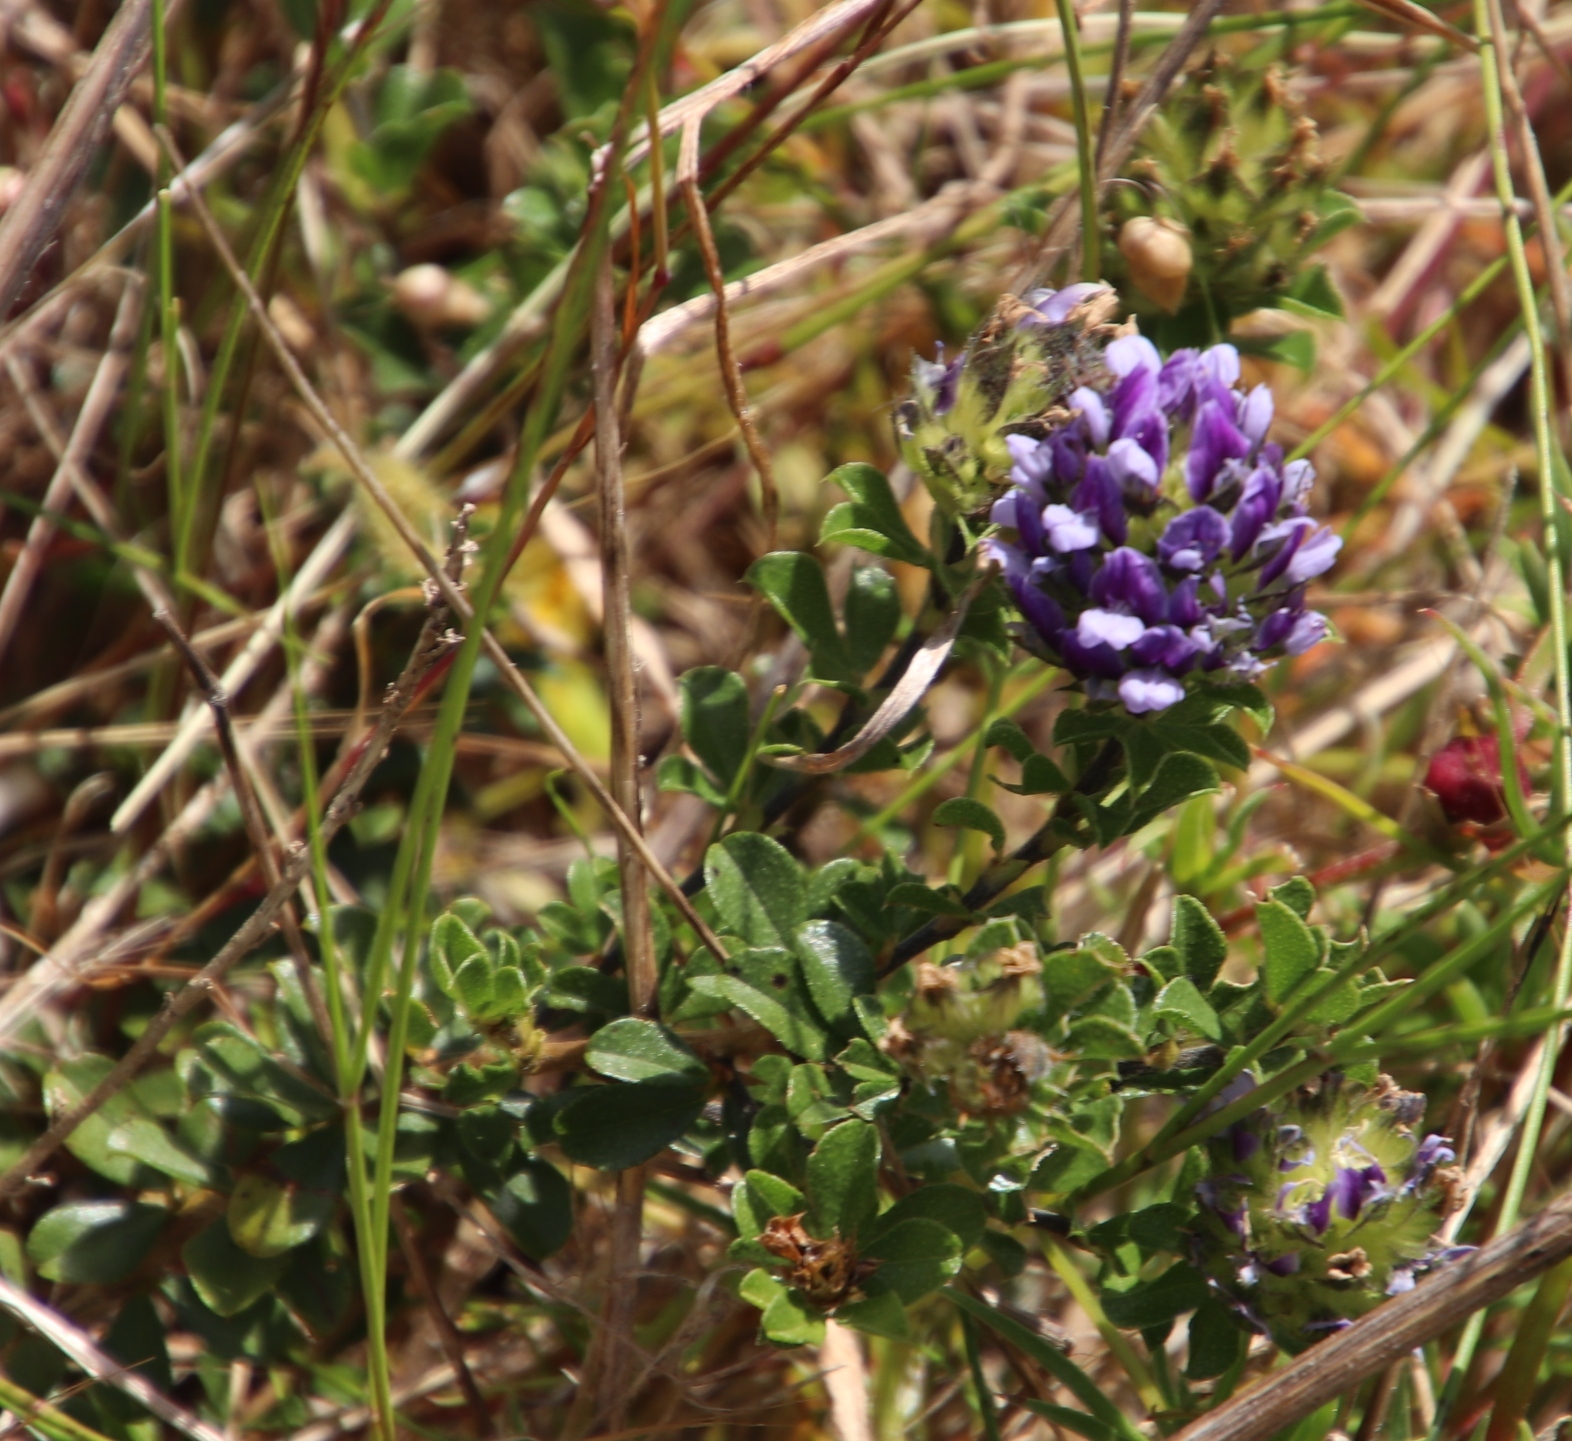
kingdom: Plantae
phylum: Tracheophyta
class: Magnoliopsida
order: Fabales
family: Fabaceae
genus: Psoralea
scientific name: Psoralea fruticans
